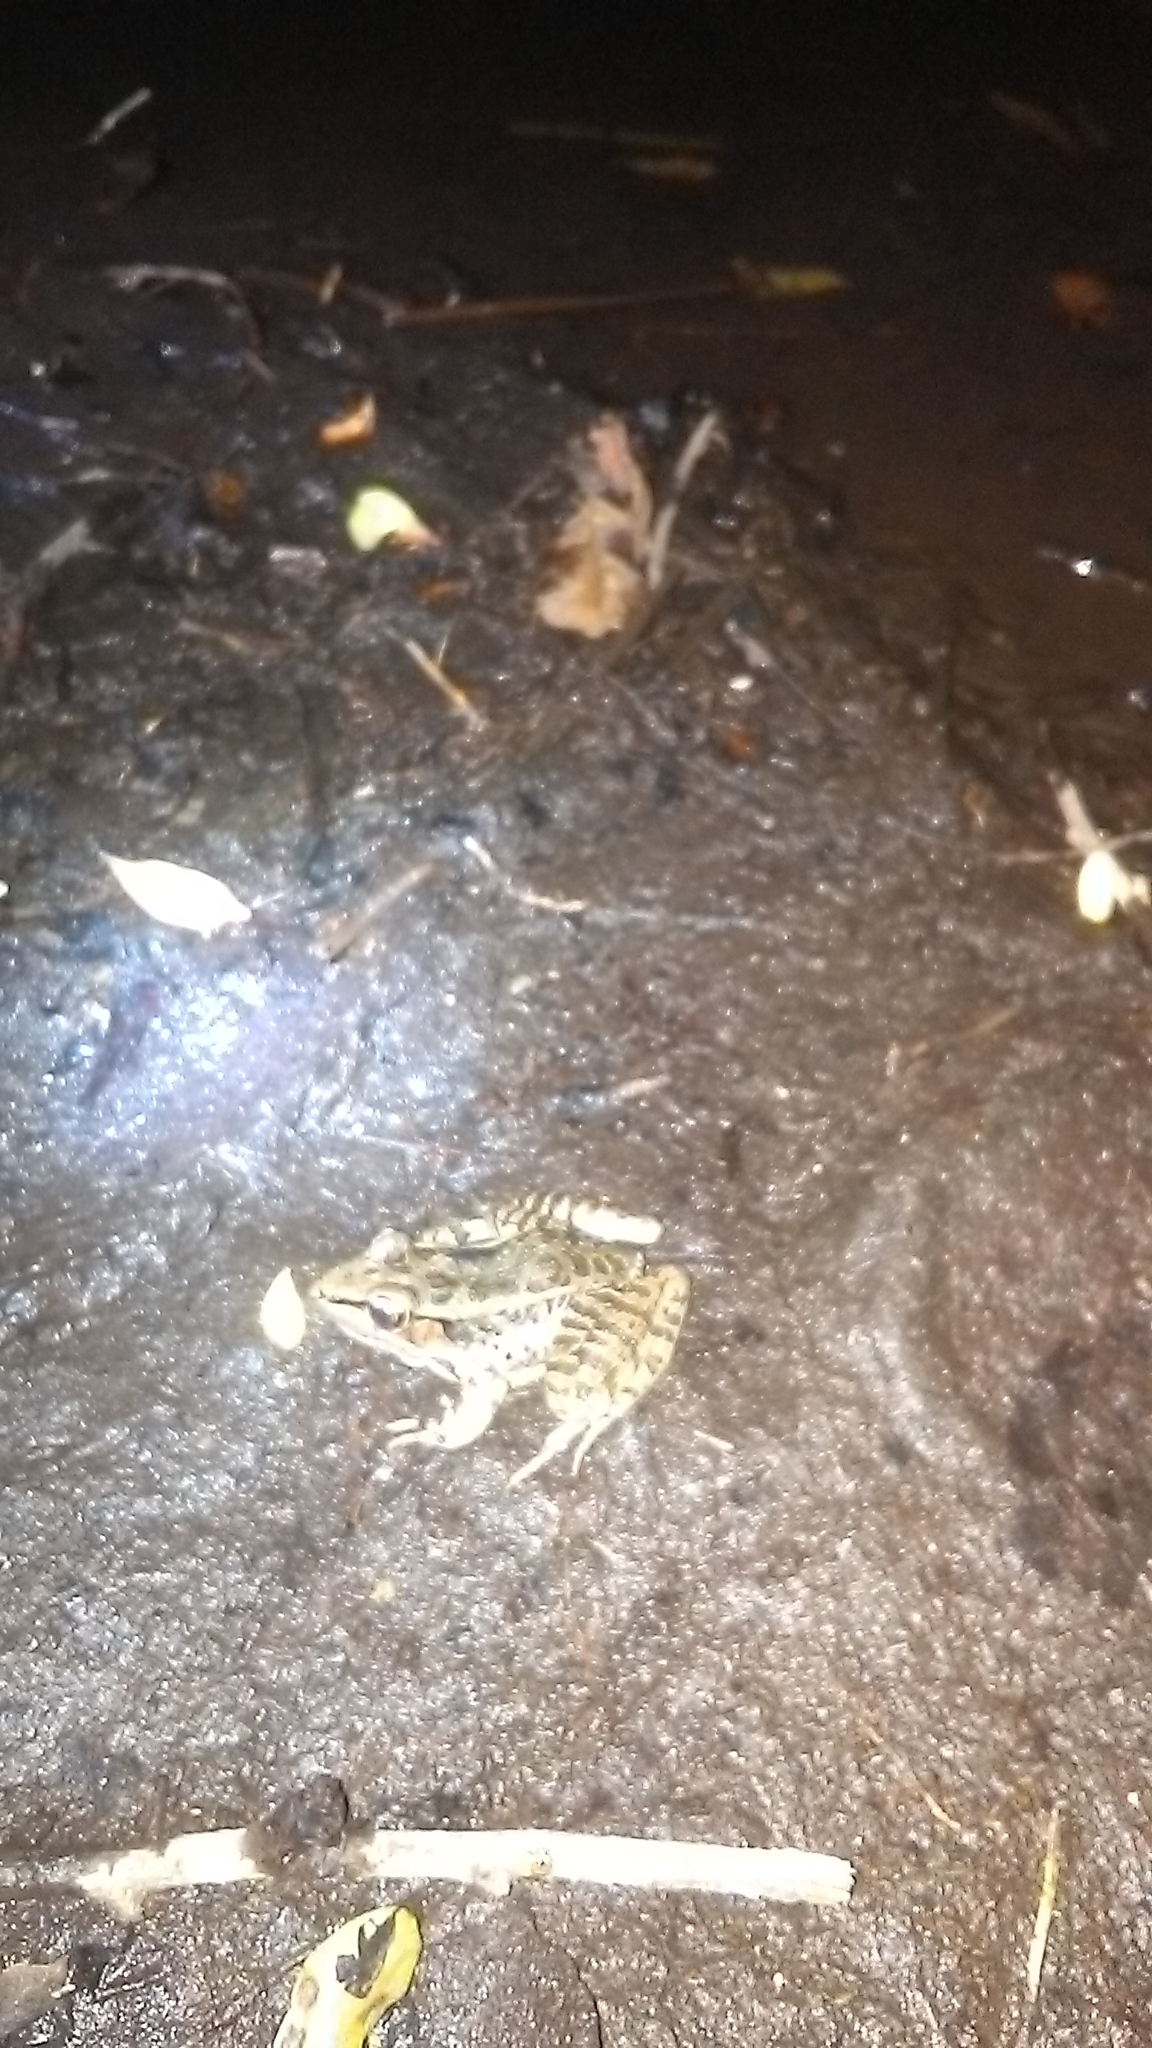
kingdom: Animalia
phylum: Chordata
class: Amphibia
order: Anura
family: Ranidae
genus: Lithobates
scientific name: Lithobates brownorum
